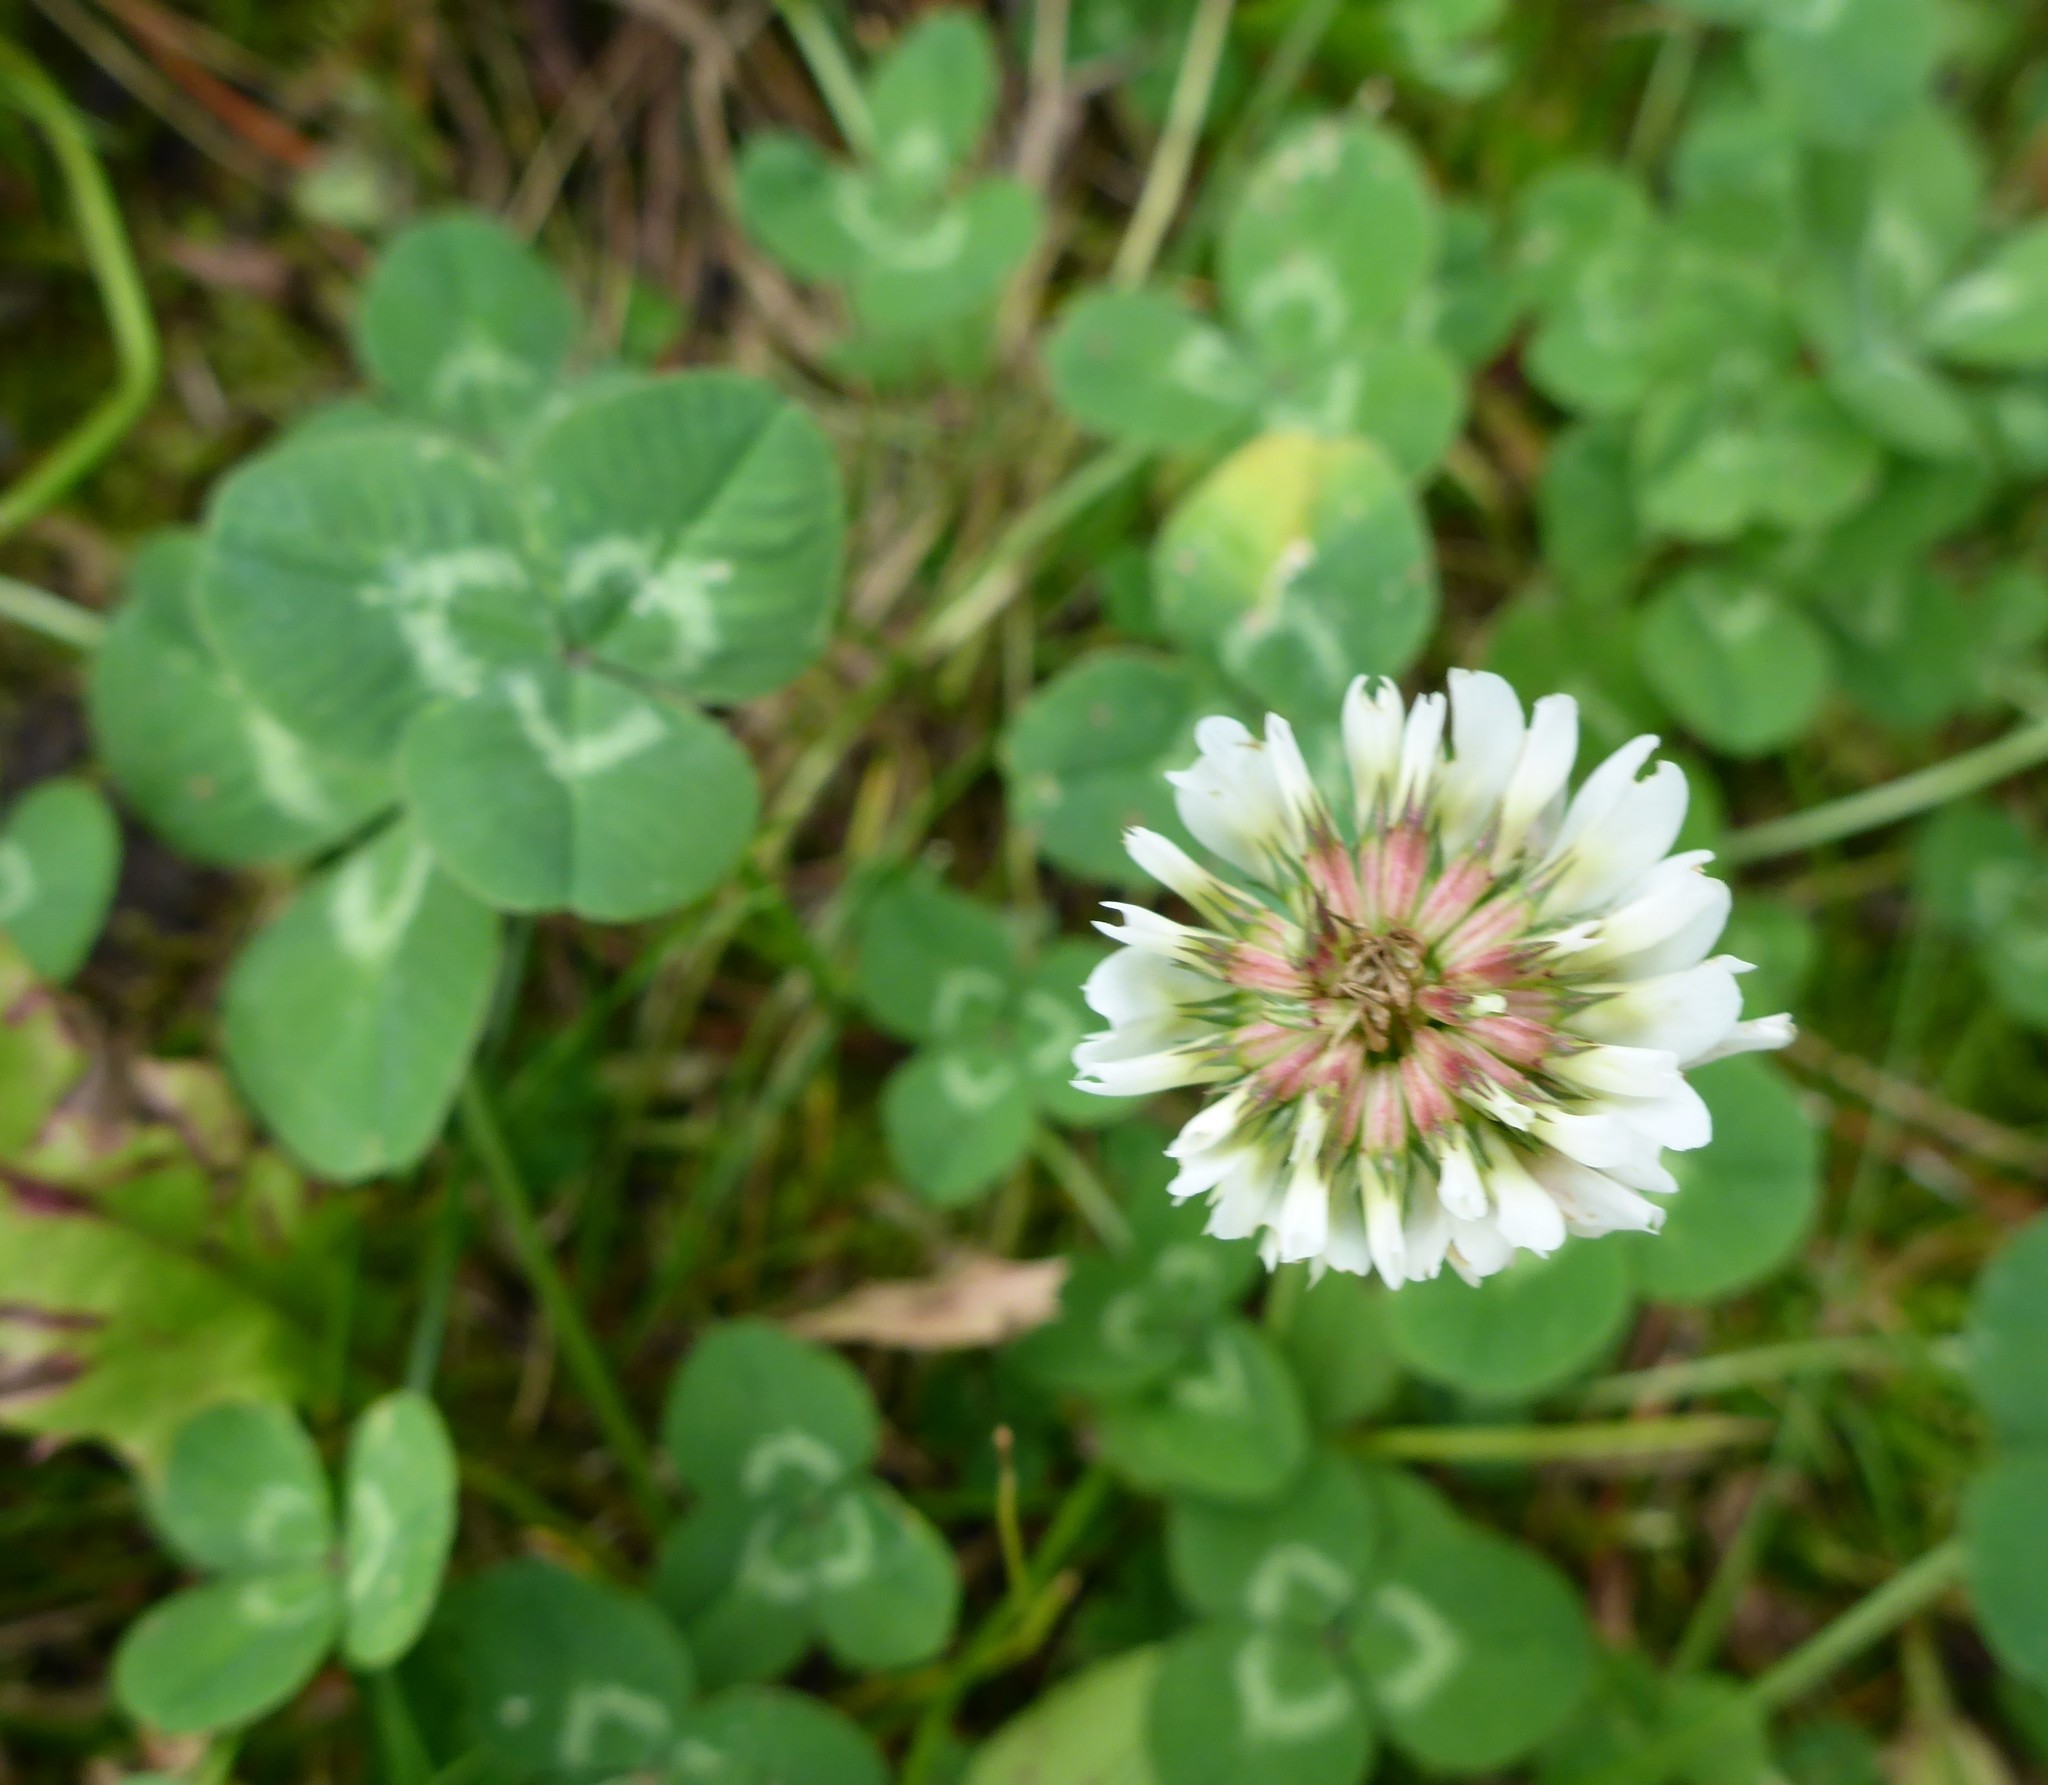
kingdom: Plantae
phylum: Tracheophyta
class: Magnoliopsida
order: Fabales
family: Fabaceae
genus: Trifolium
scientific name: Trifolium repens
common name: White clover
